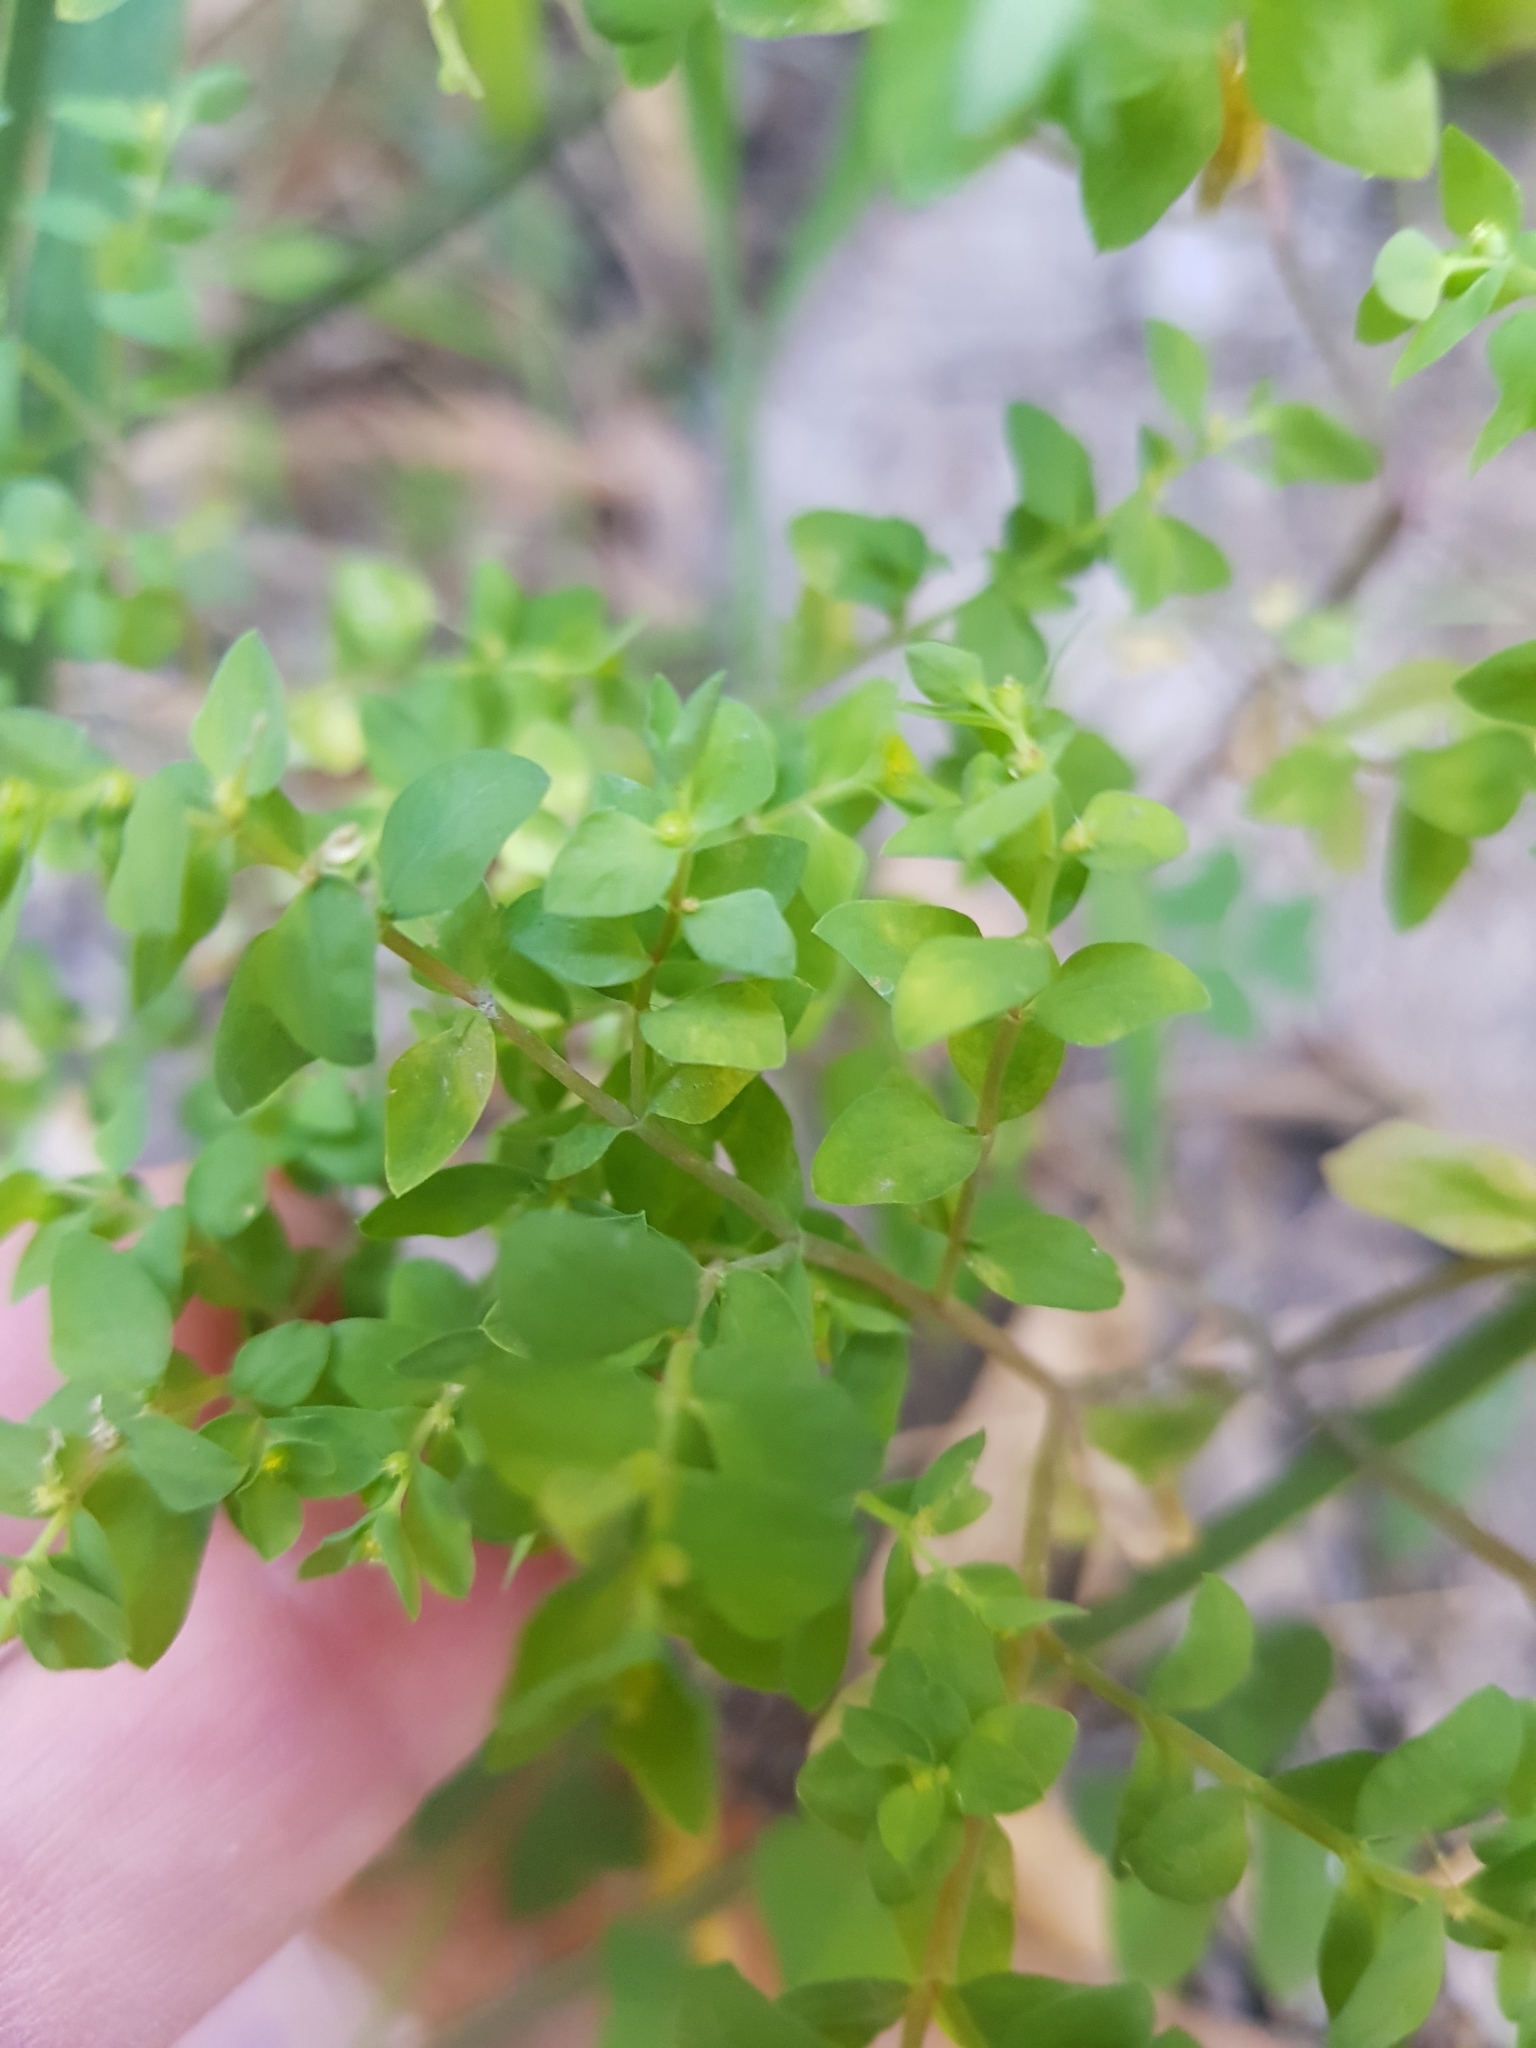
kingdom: Plantae
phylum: Tracheophyta
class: Magnoliopsida
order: Malpighiales
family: Euphorbiaceae
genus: Euphorbia
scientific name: Euphorbia peplus
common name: Petty spurge
